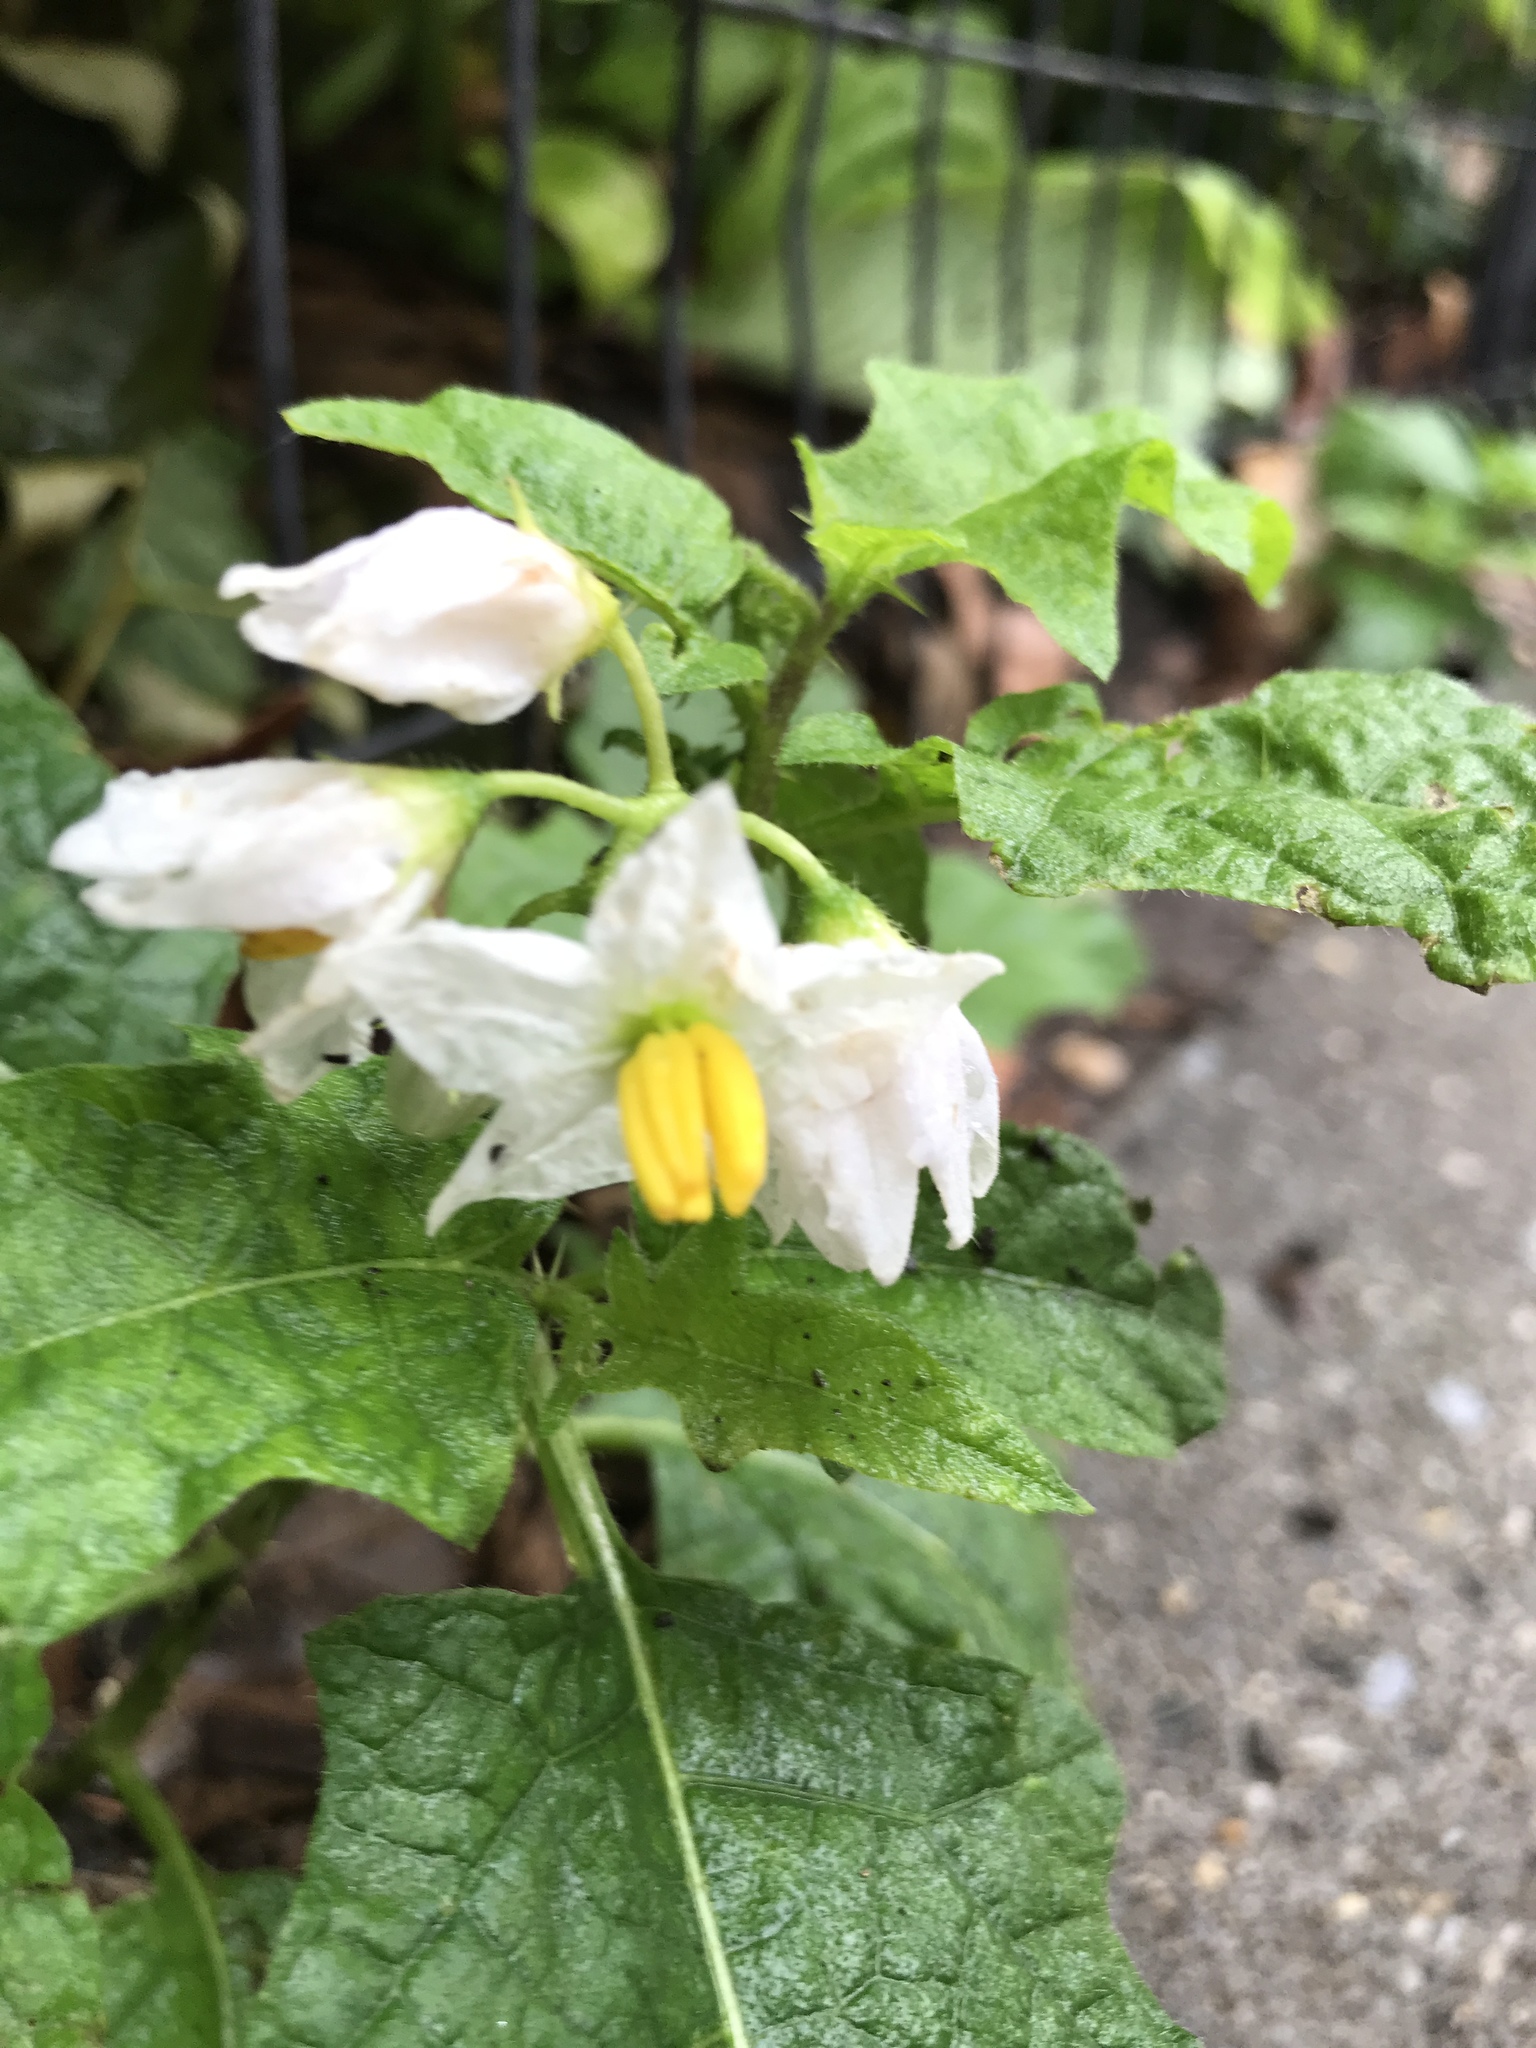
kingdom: Plantae
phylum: Tracheophyta
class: Magnoliopsida
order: Solanales
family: Solanaceae
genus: Solanum
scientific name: Solanum carolinense
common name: Horse-nettle
